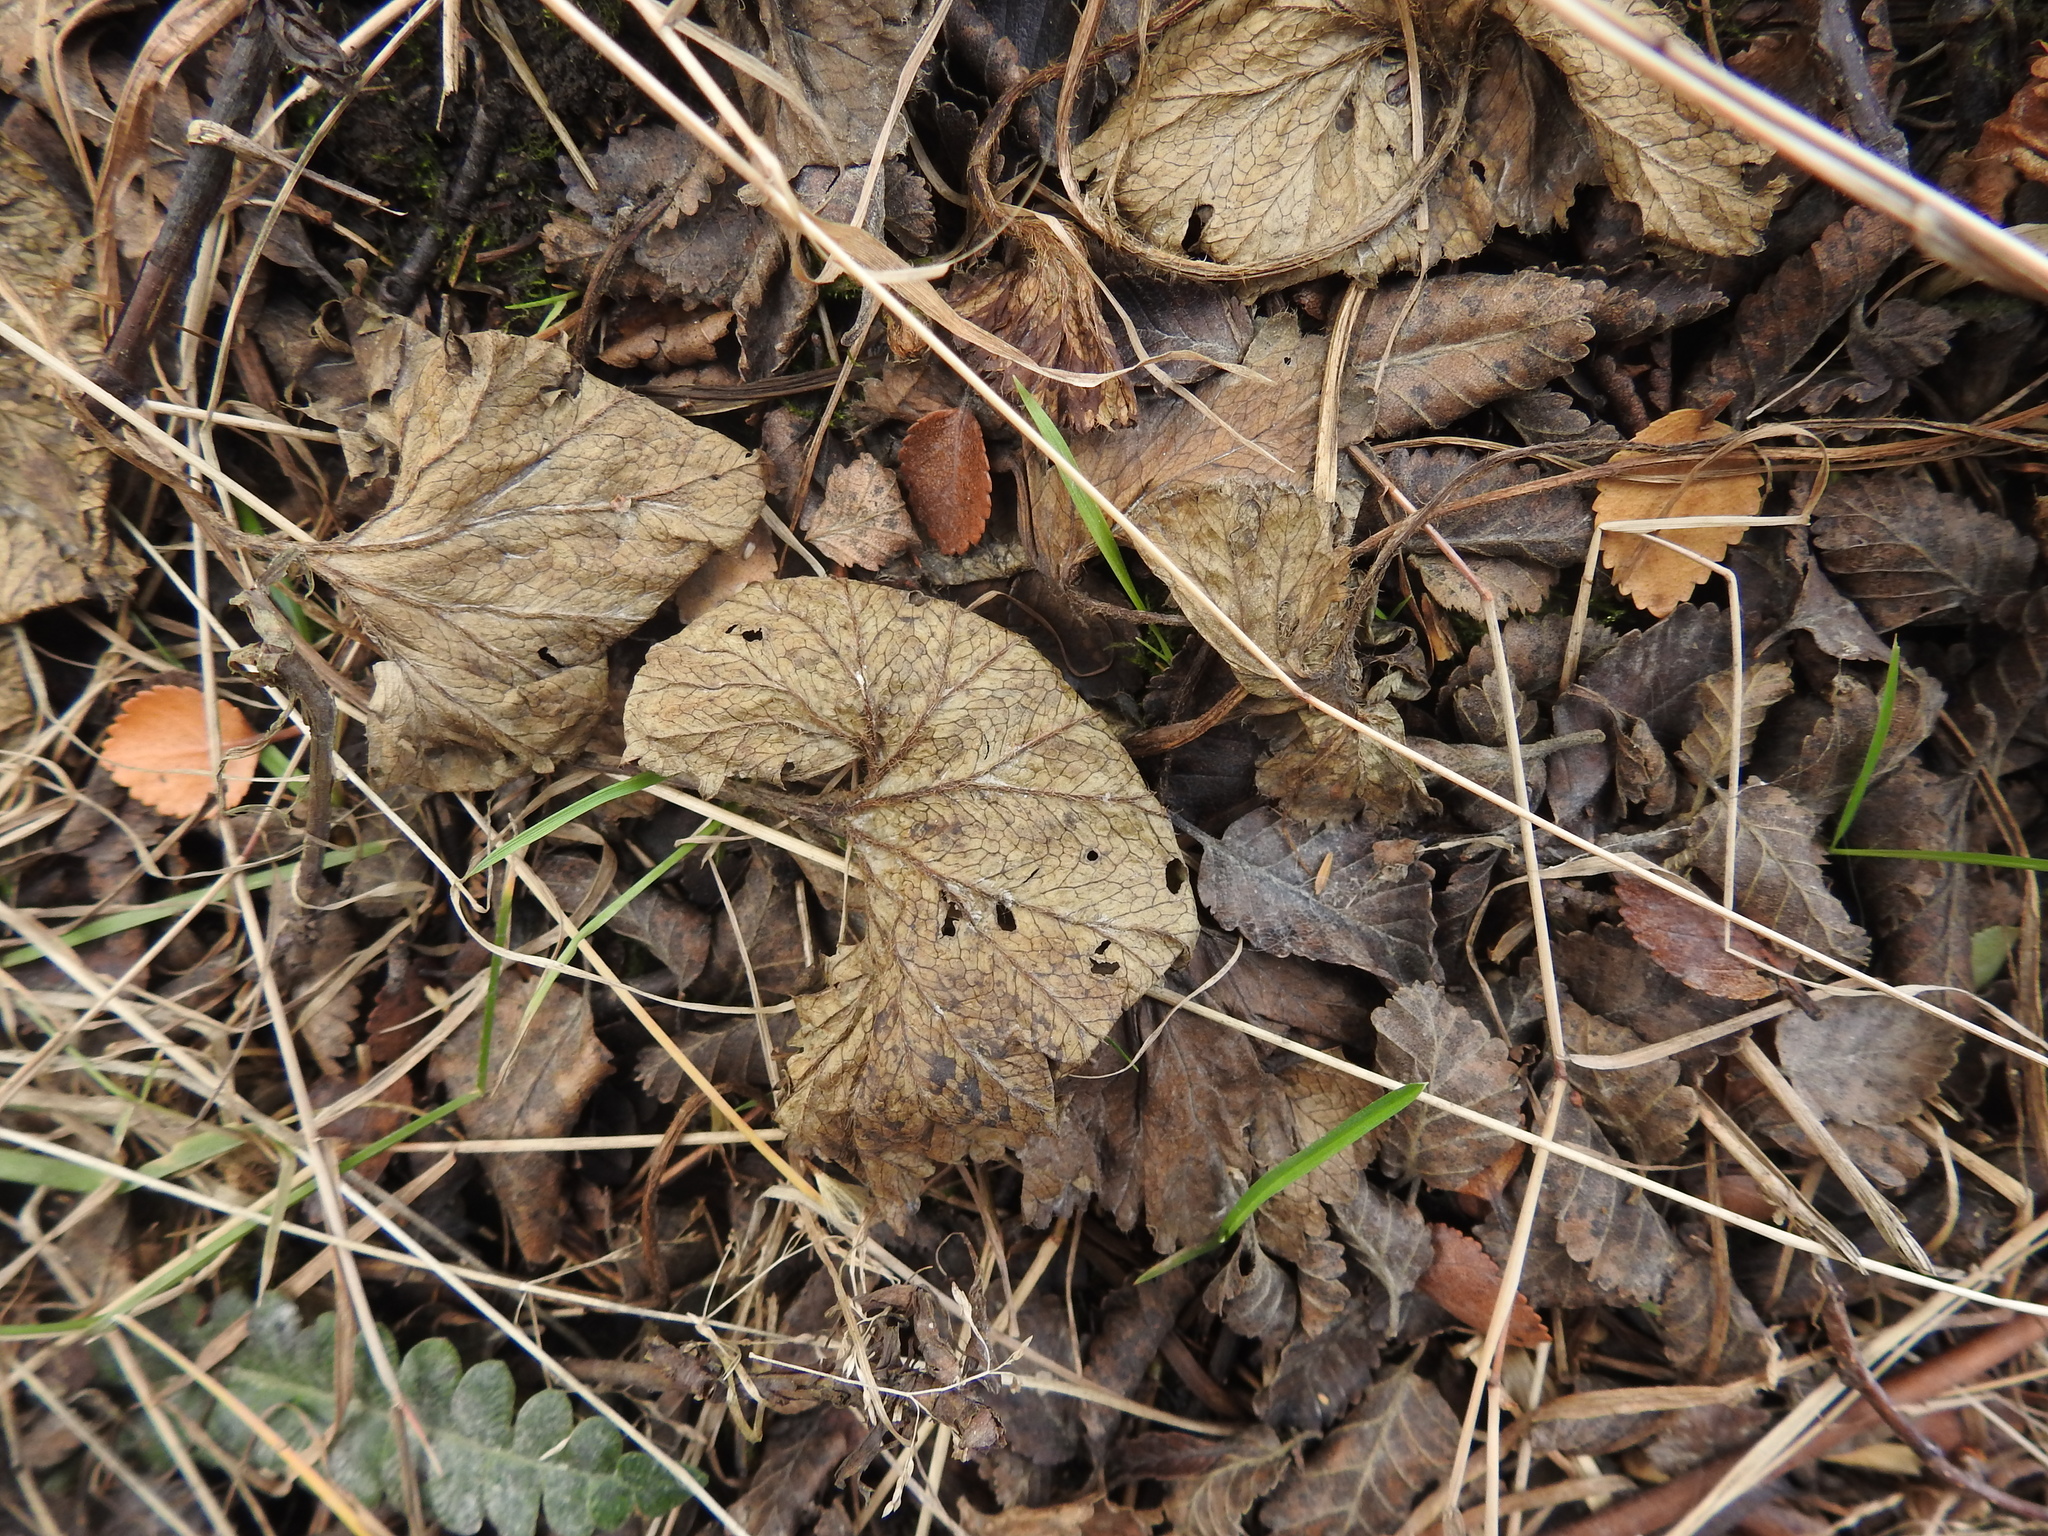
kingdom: Plantae
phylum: Tracheophyta
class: Magnoliopsida
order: Gunnerales
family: Gunneraceae
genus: Gunnera
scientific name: Gunnera magellanica
